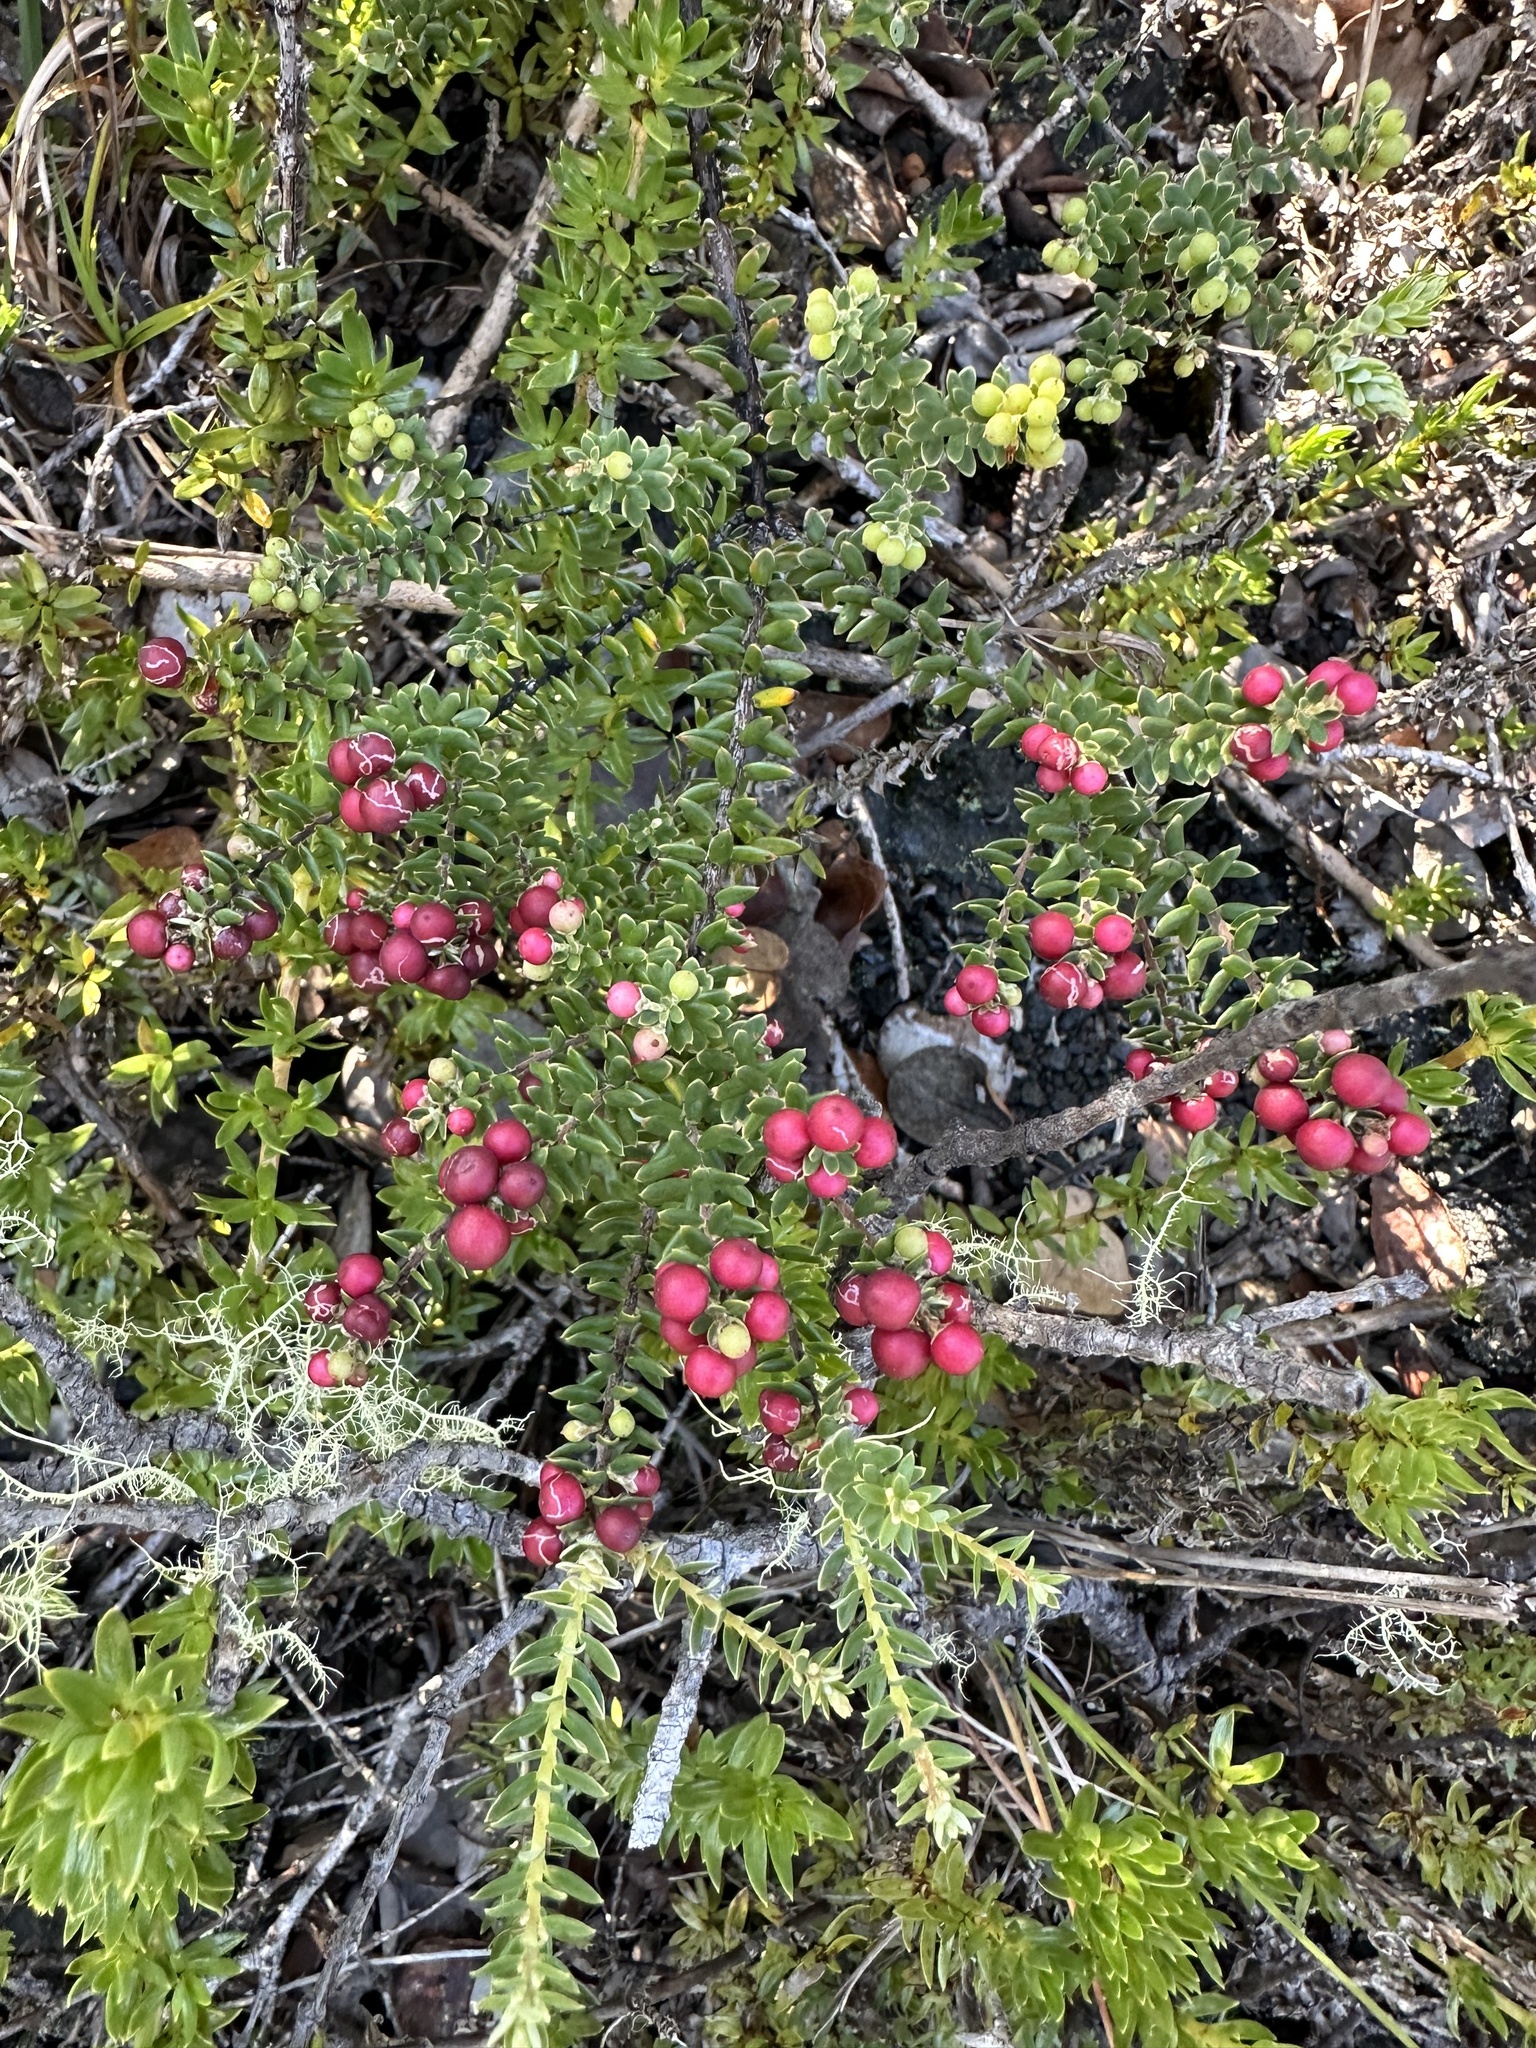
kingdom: Plantae
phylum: Tracheophyta
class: Magnoliopsida
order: Ericales
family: Ericaceae
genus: Leptecophylla
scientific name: Leptecophylla tameiameiae
